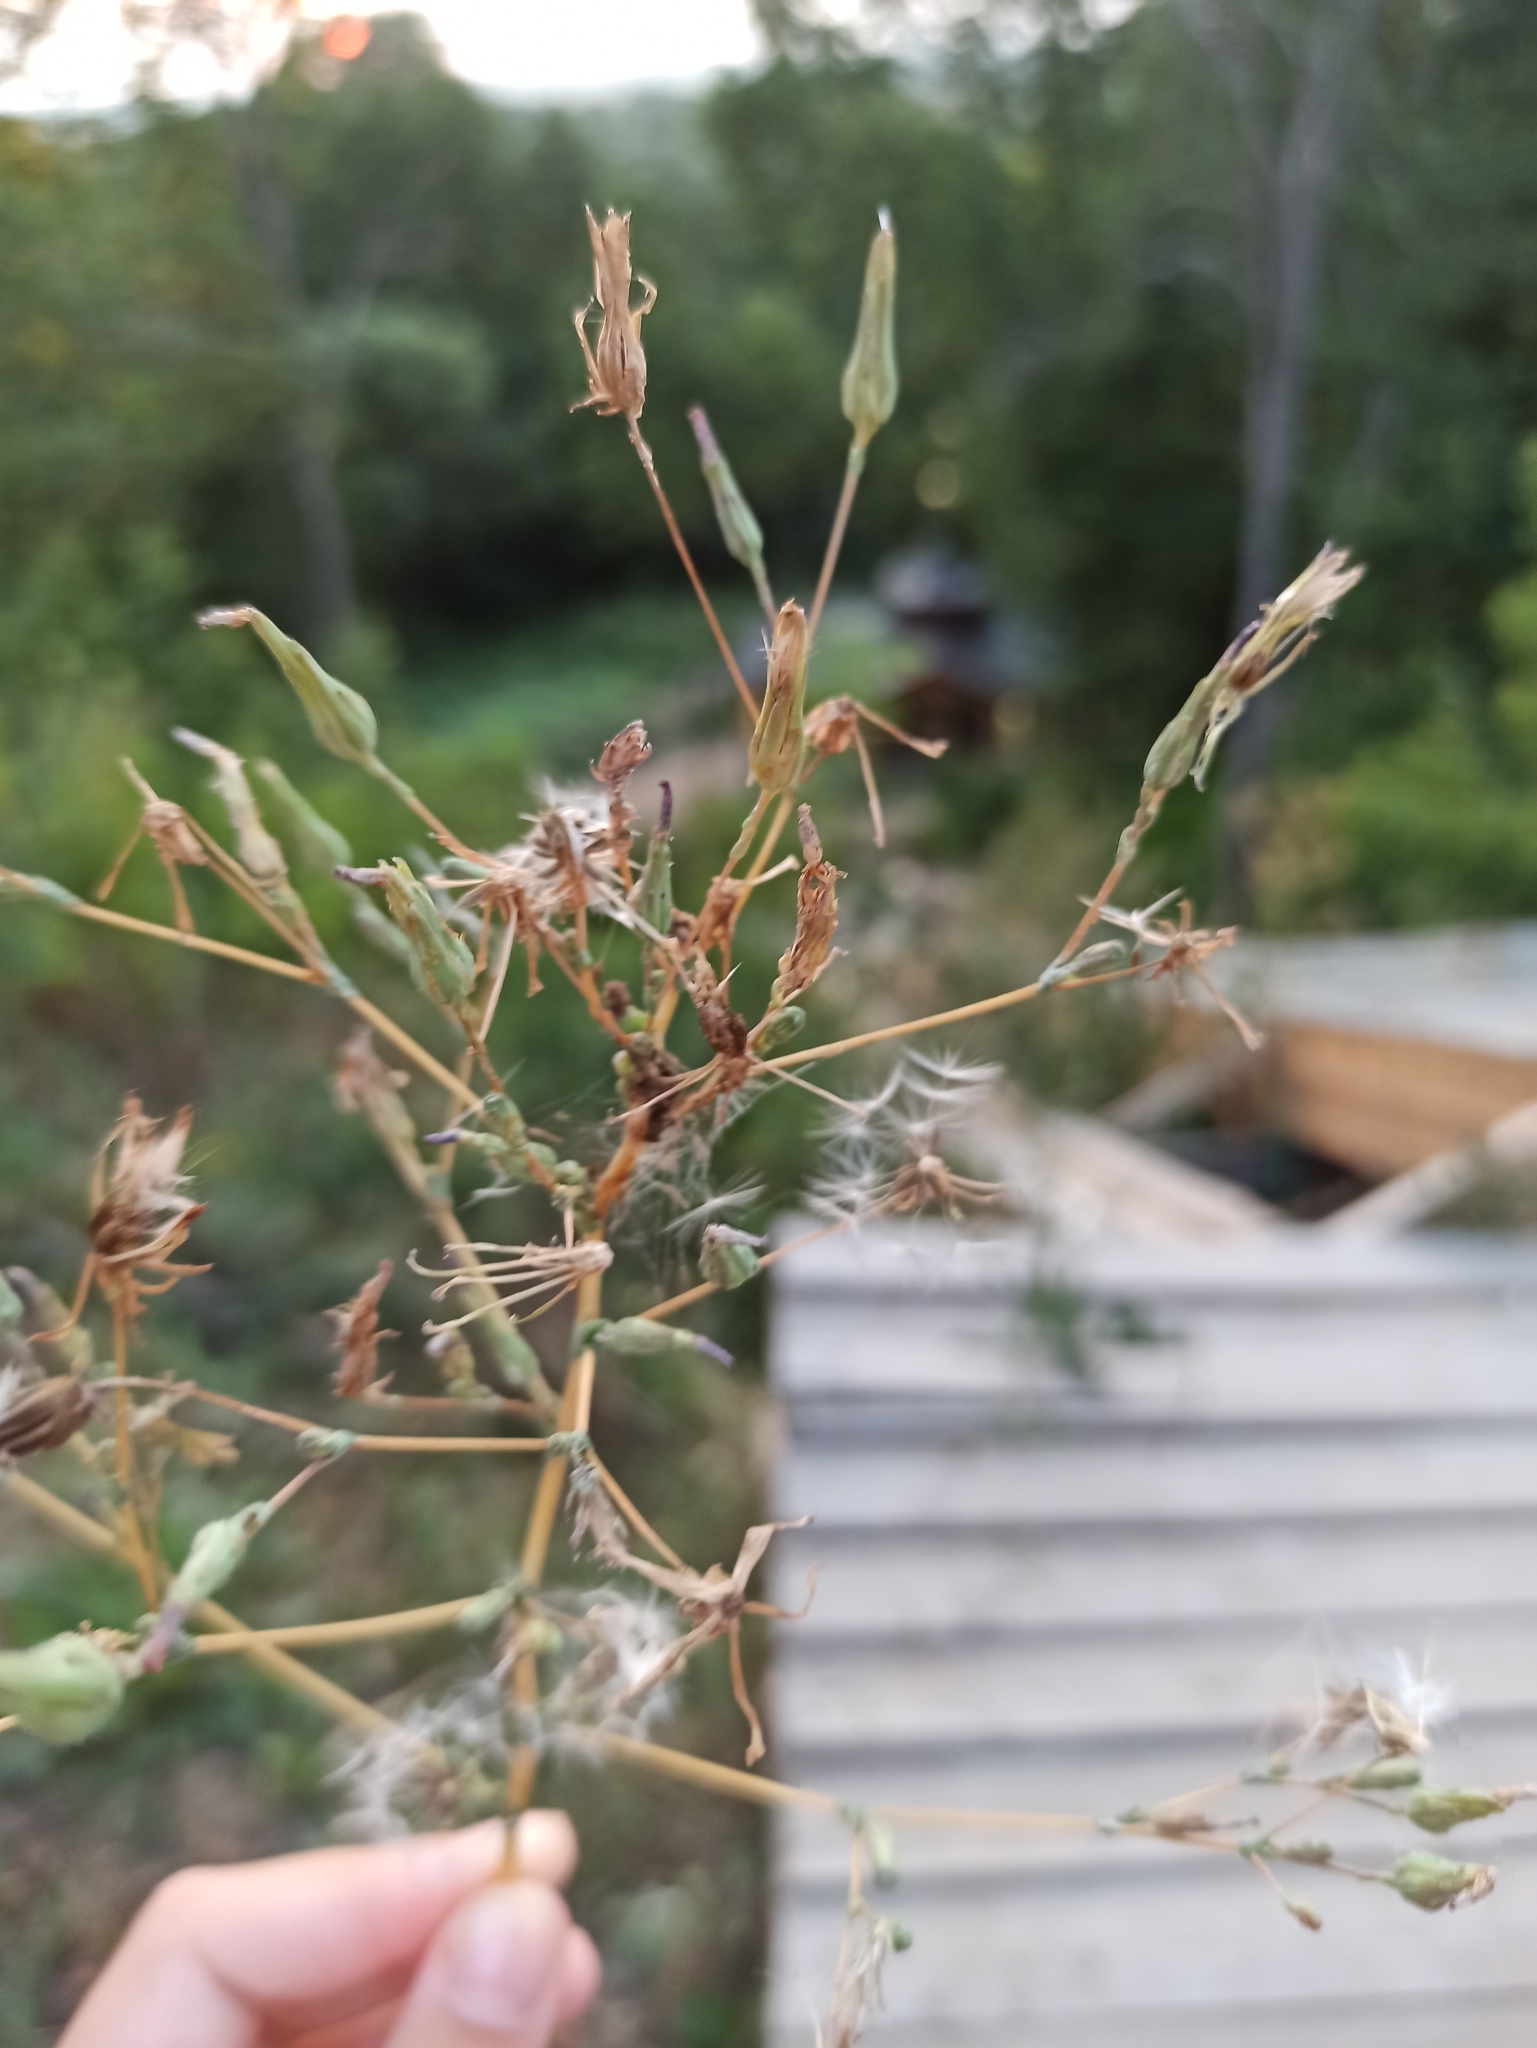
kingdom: Plantae
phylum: Tracheophyta
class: Magnoliopsida
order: Asterales
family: Asteraceae
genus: Lactuca
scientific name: Lactuca serriola
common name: Prickly lettuce
